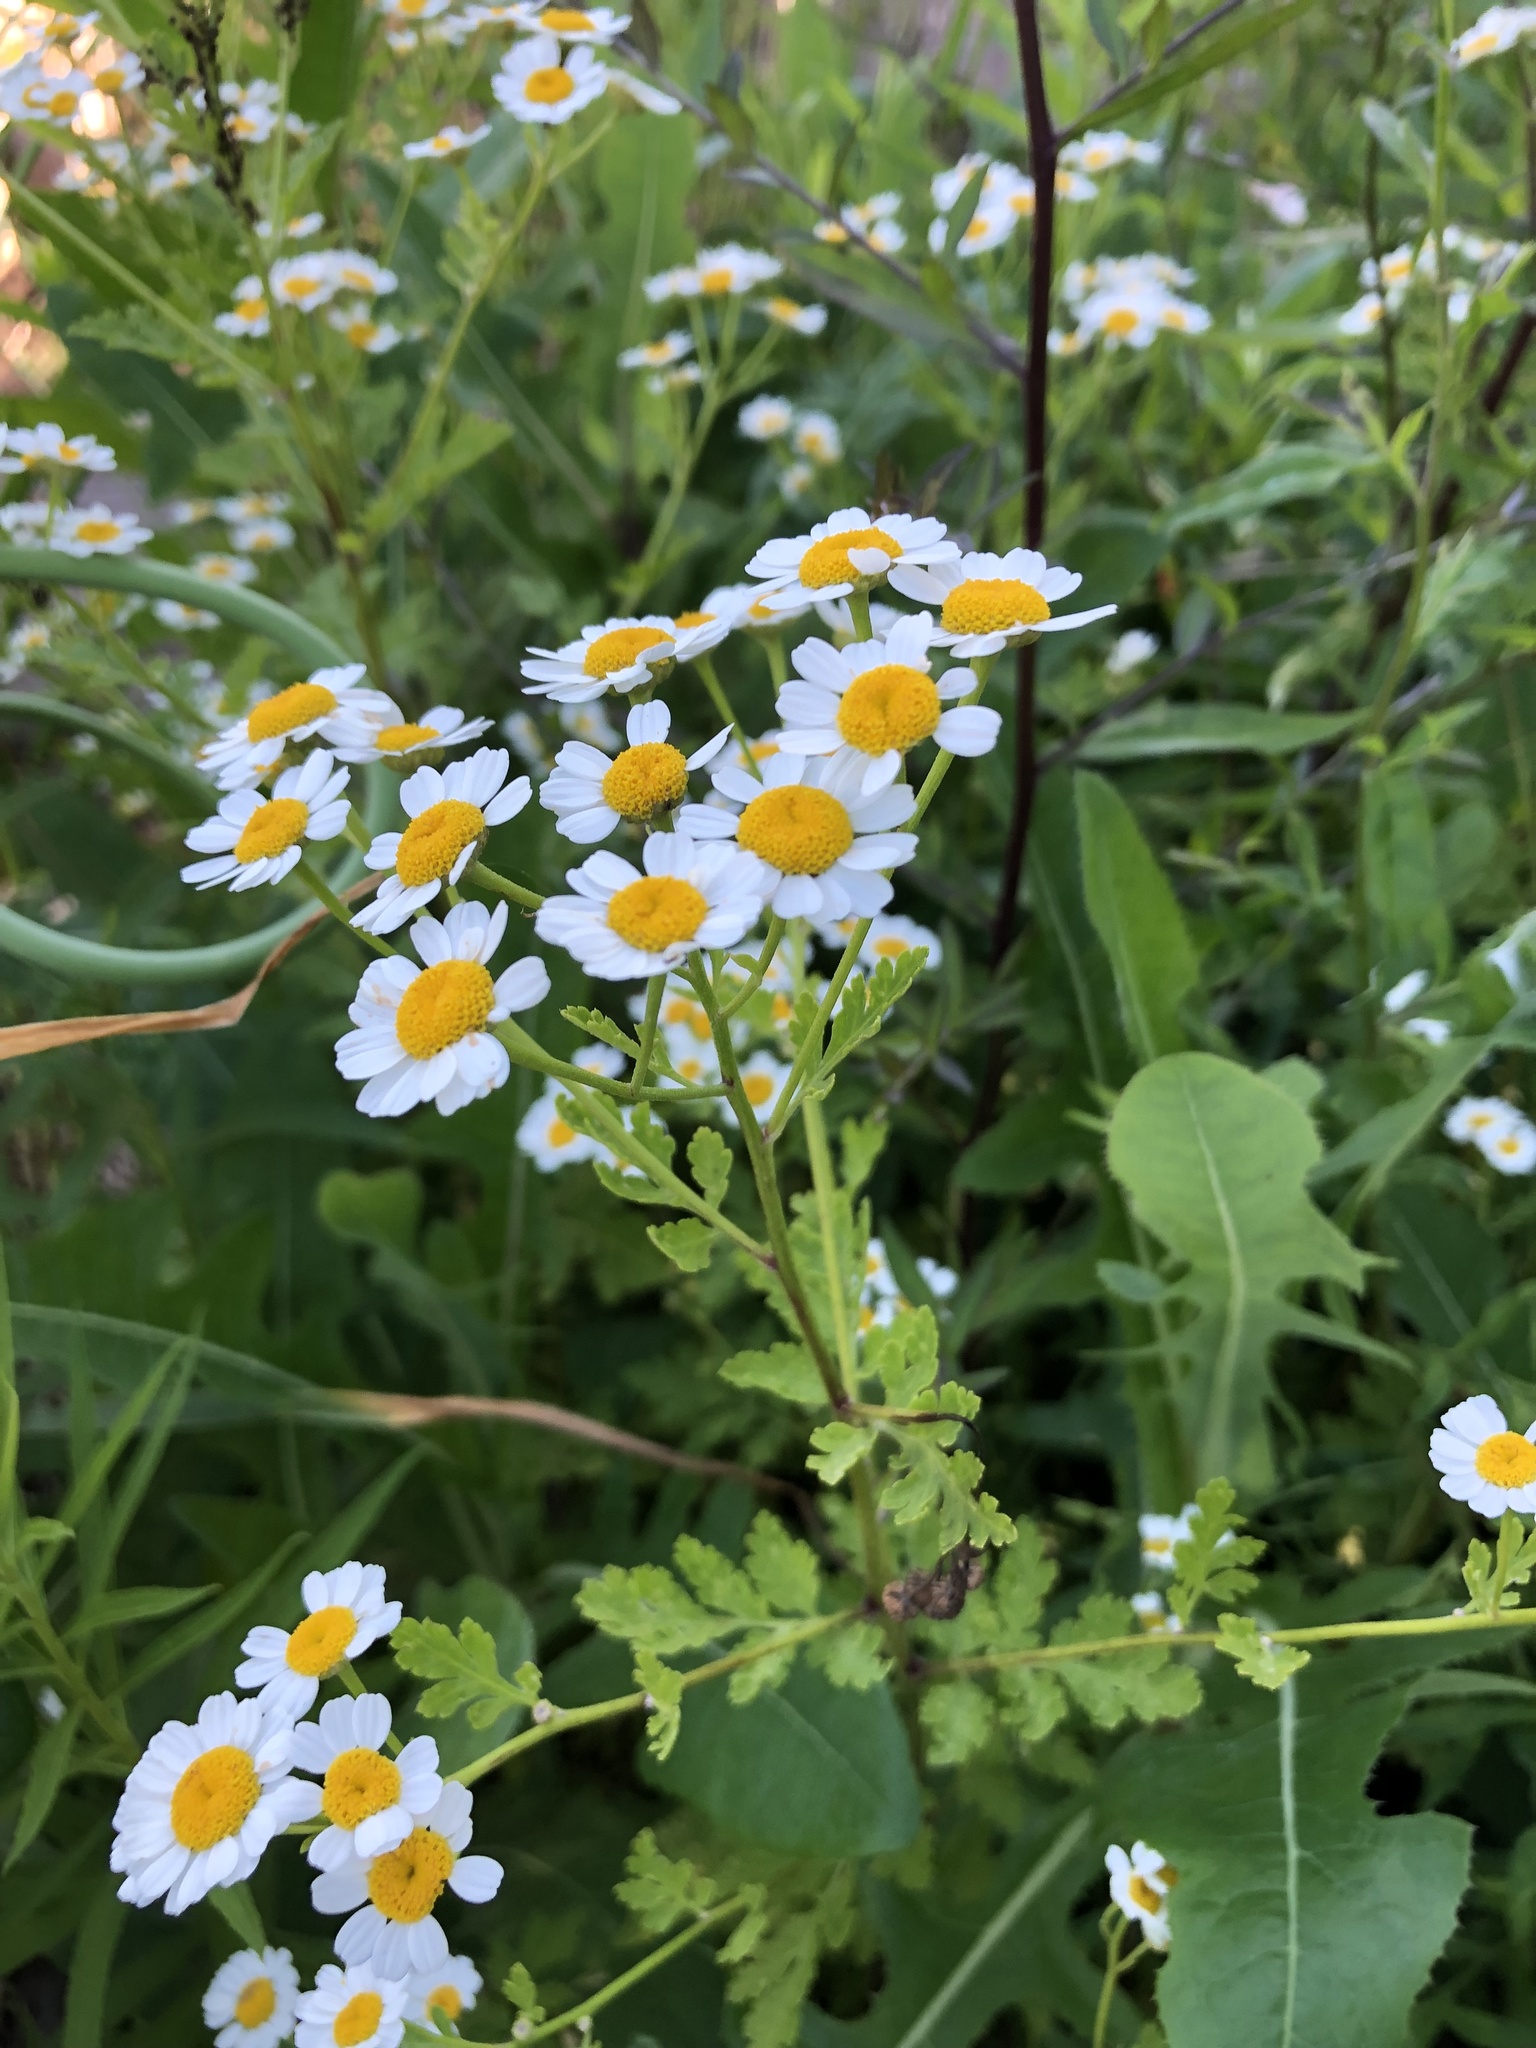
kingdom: Plantae
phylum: Tracheophyta
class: Magnoliopsida
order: Asterales
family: Asteraceae
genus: Tanacetum
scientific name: Tanacetum parthenium
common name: Feverfew
